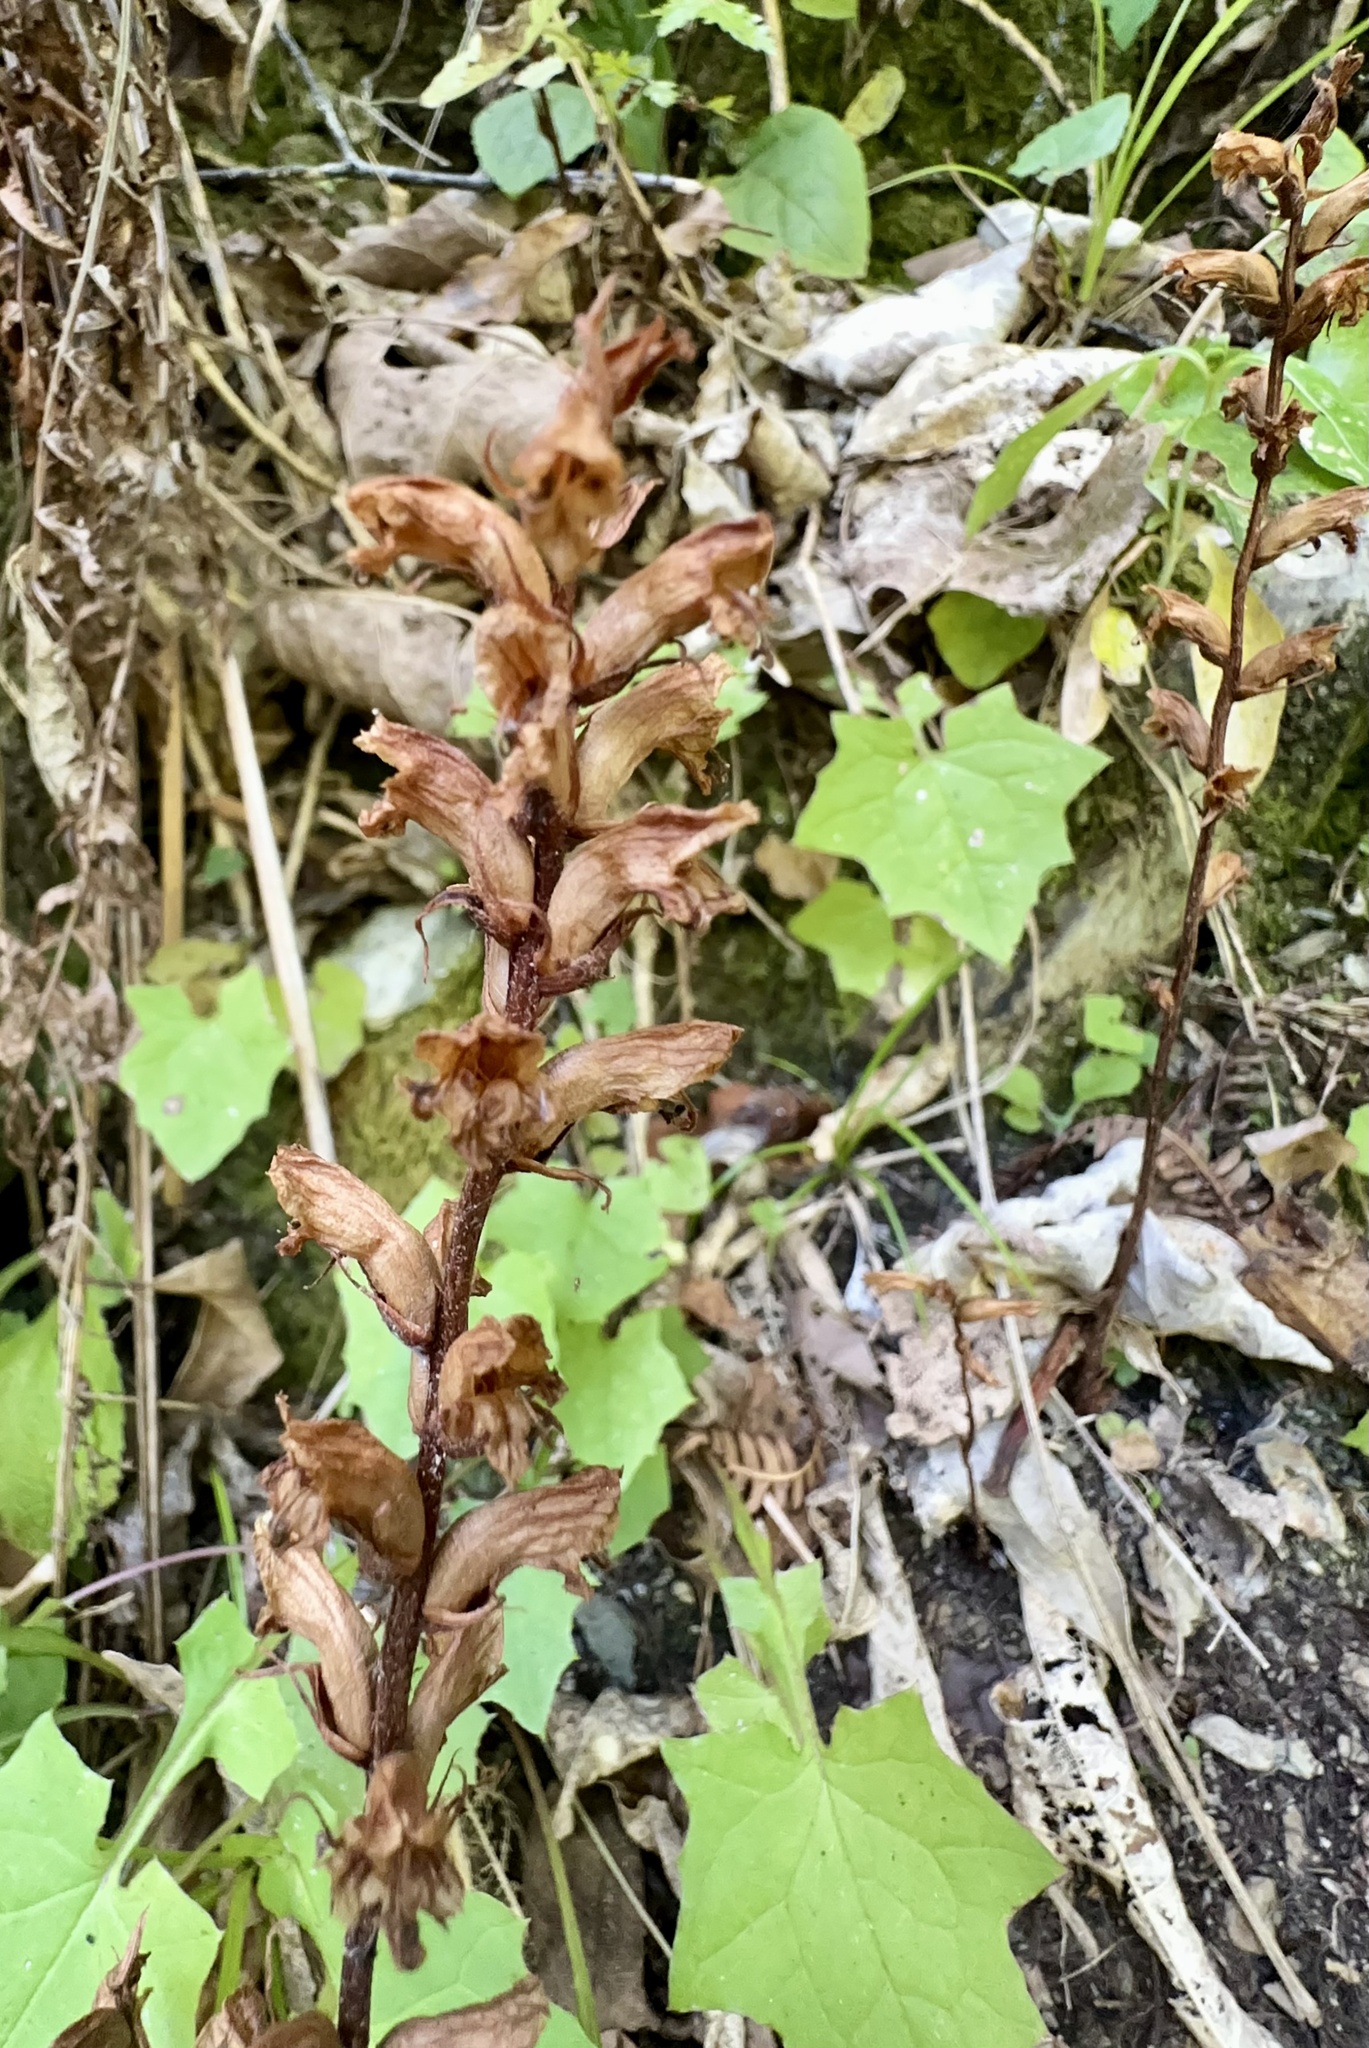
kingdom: Plantae
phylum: Tracheophyta
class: Magnoliopsida
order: Lamiales
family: Orobanchaceae
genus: Orobanche
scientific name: Orobanche minor
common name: Common broomrape
